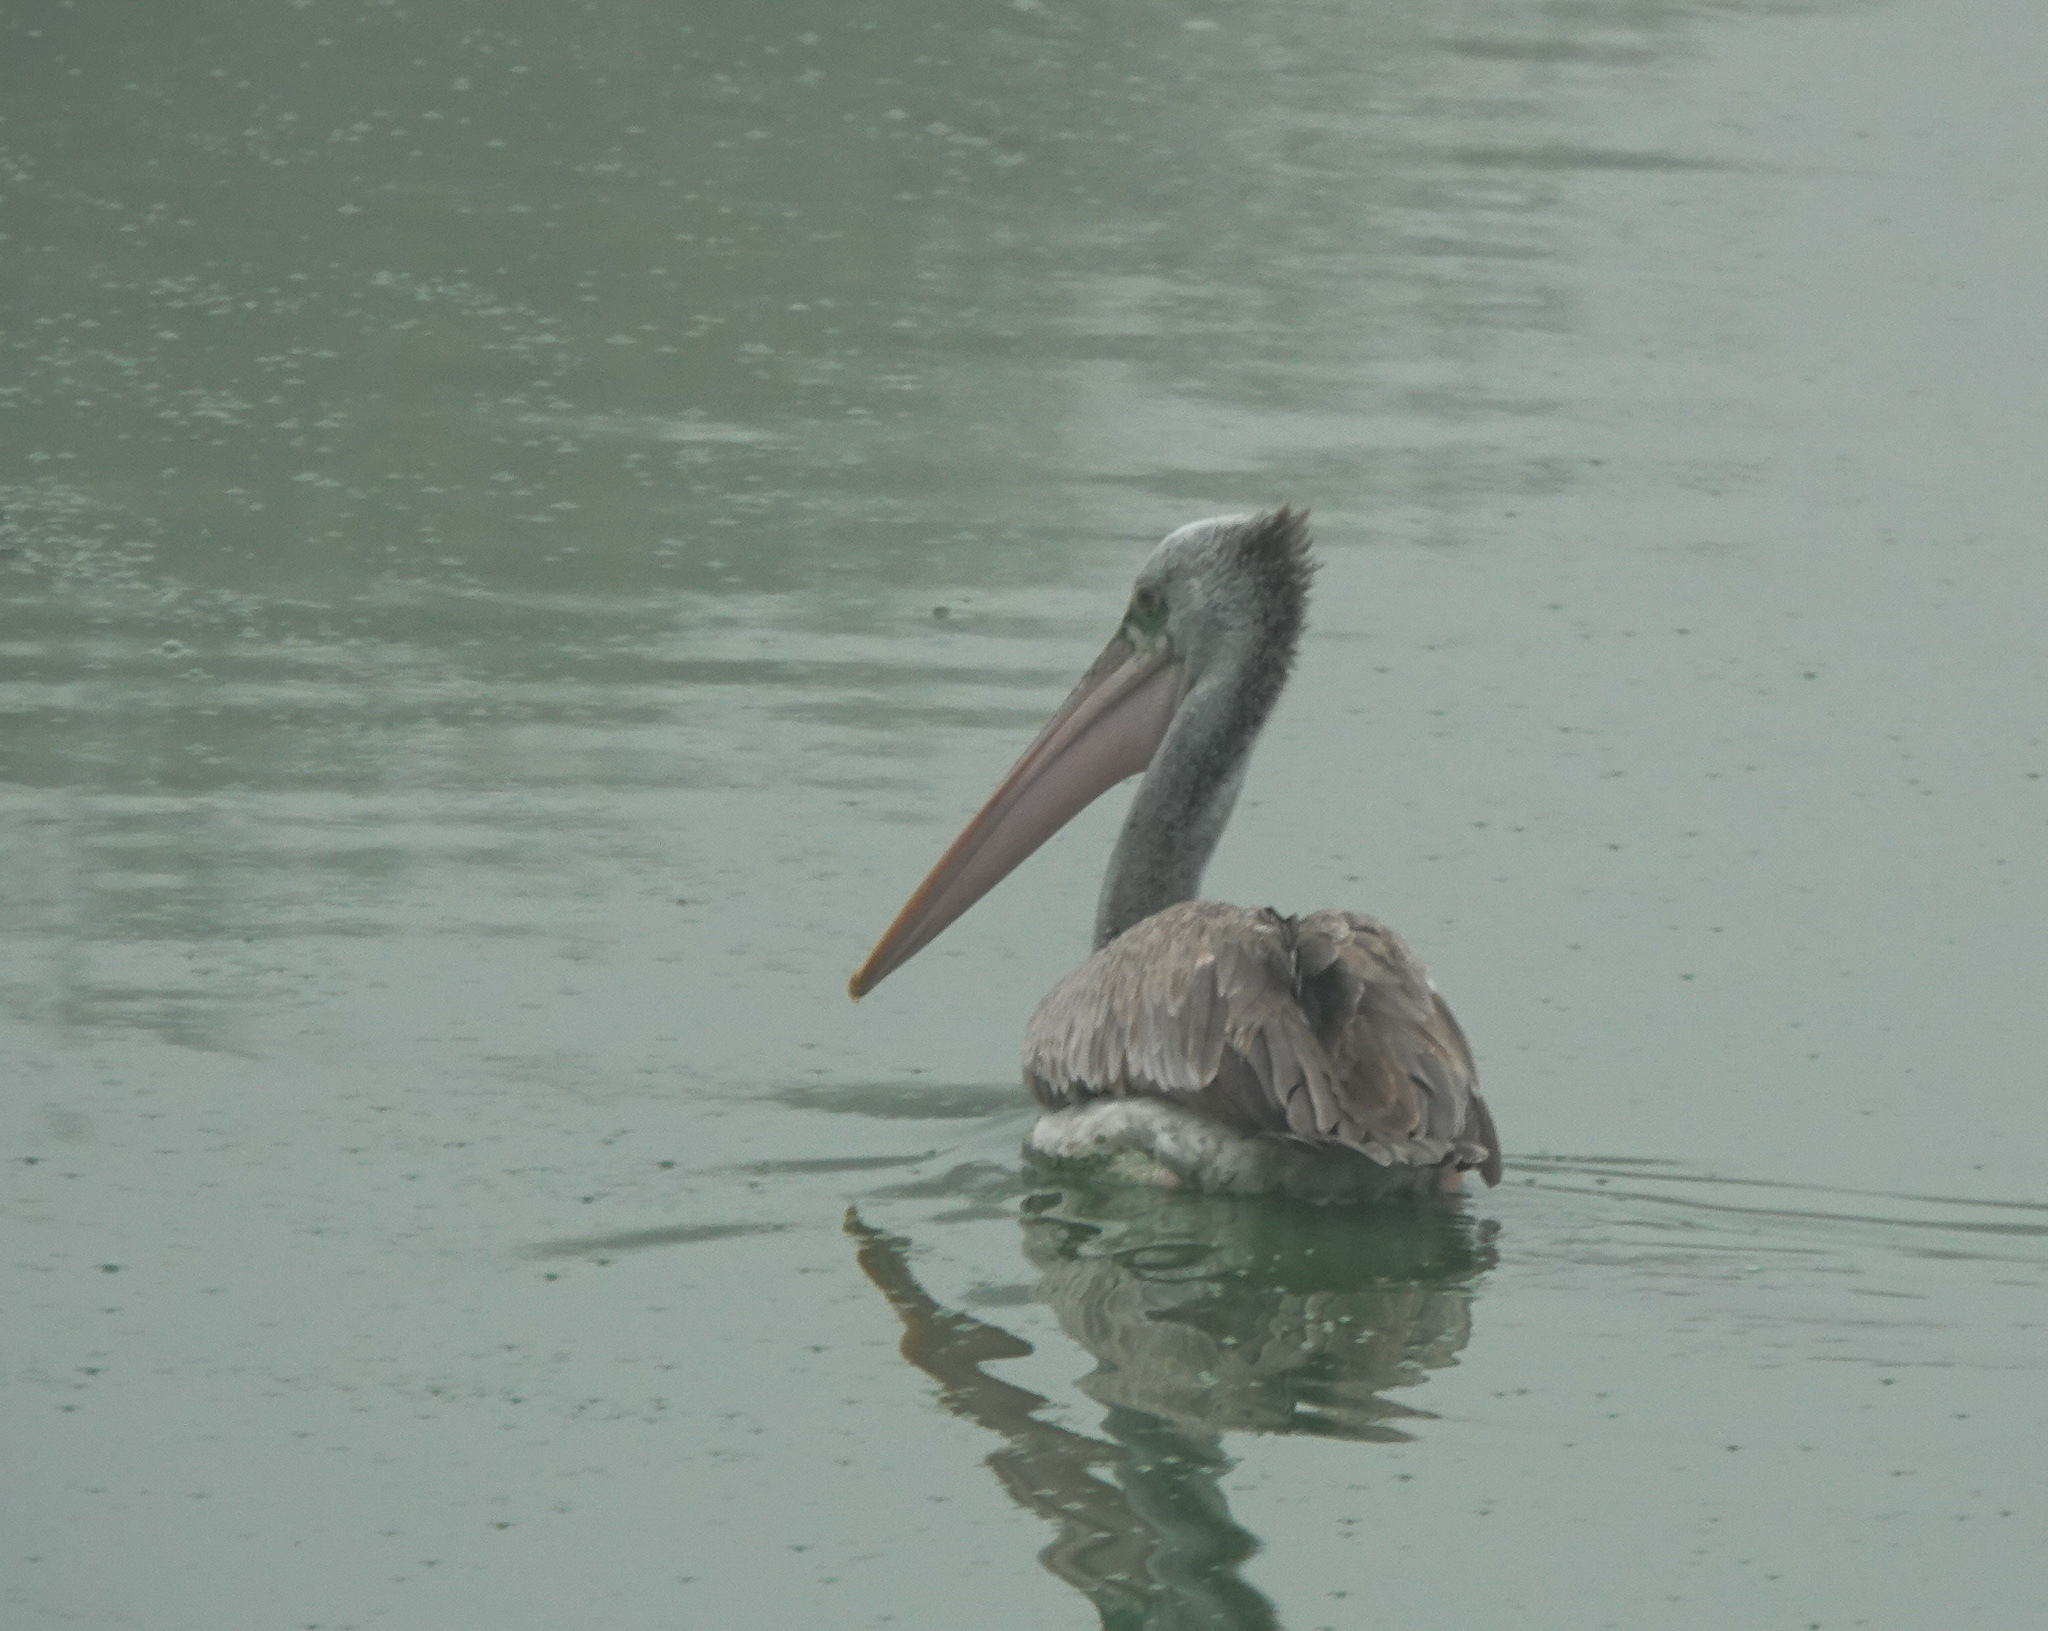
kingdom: Animalia
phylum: Chordata
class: Aves
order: Pelecaniformes
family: Pelecanidae
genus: Pelecanus
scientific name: Pelecanus philippensis
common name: Spot-billed pelican
